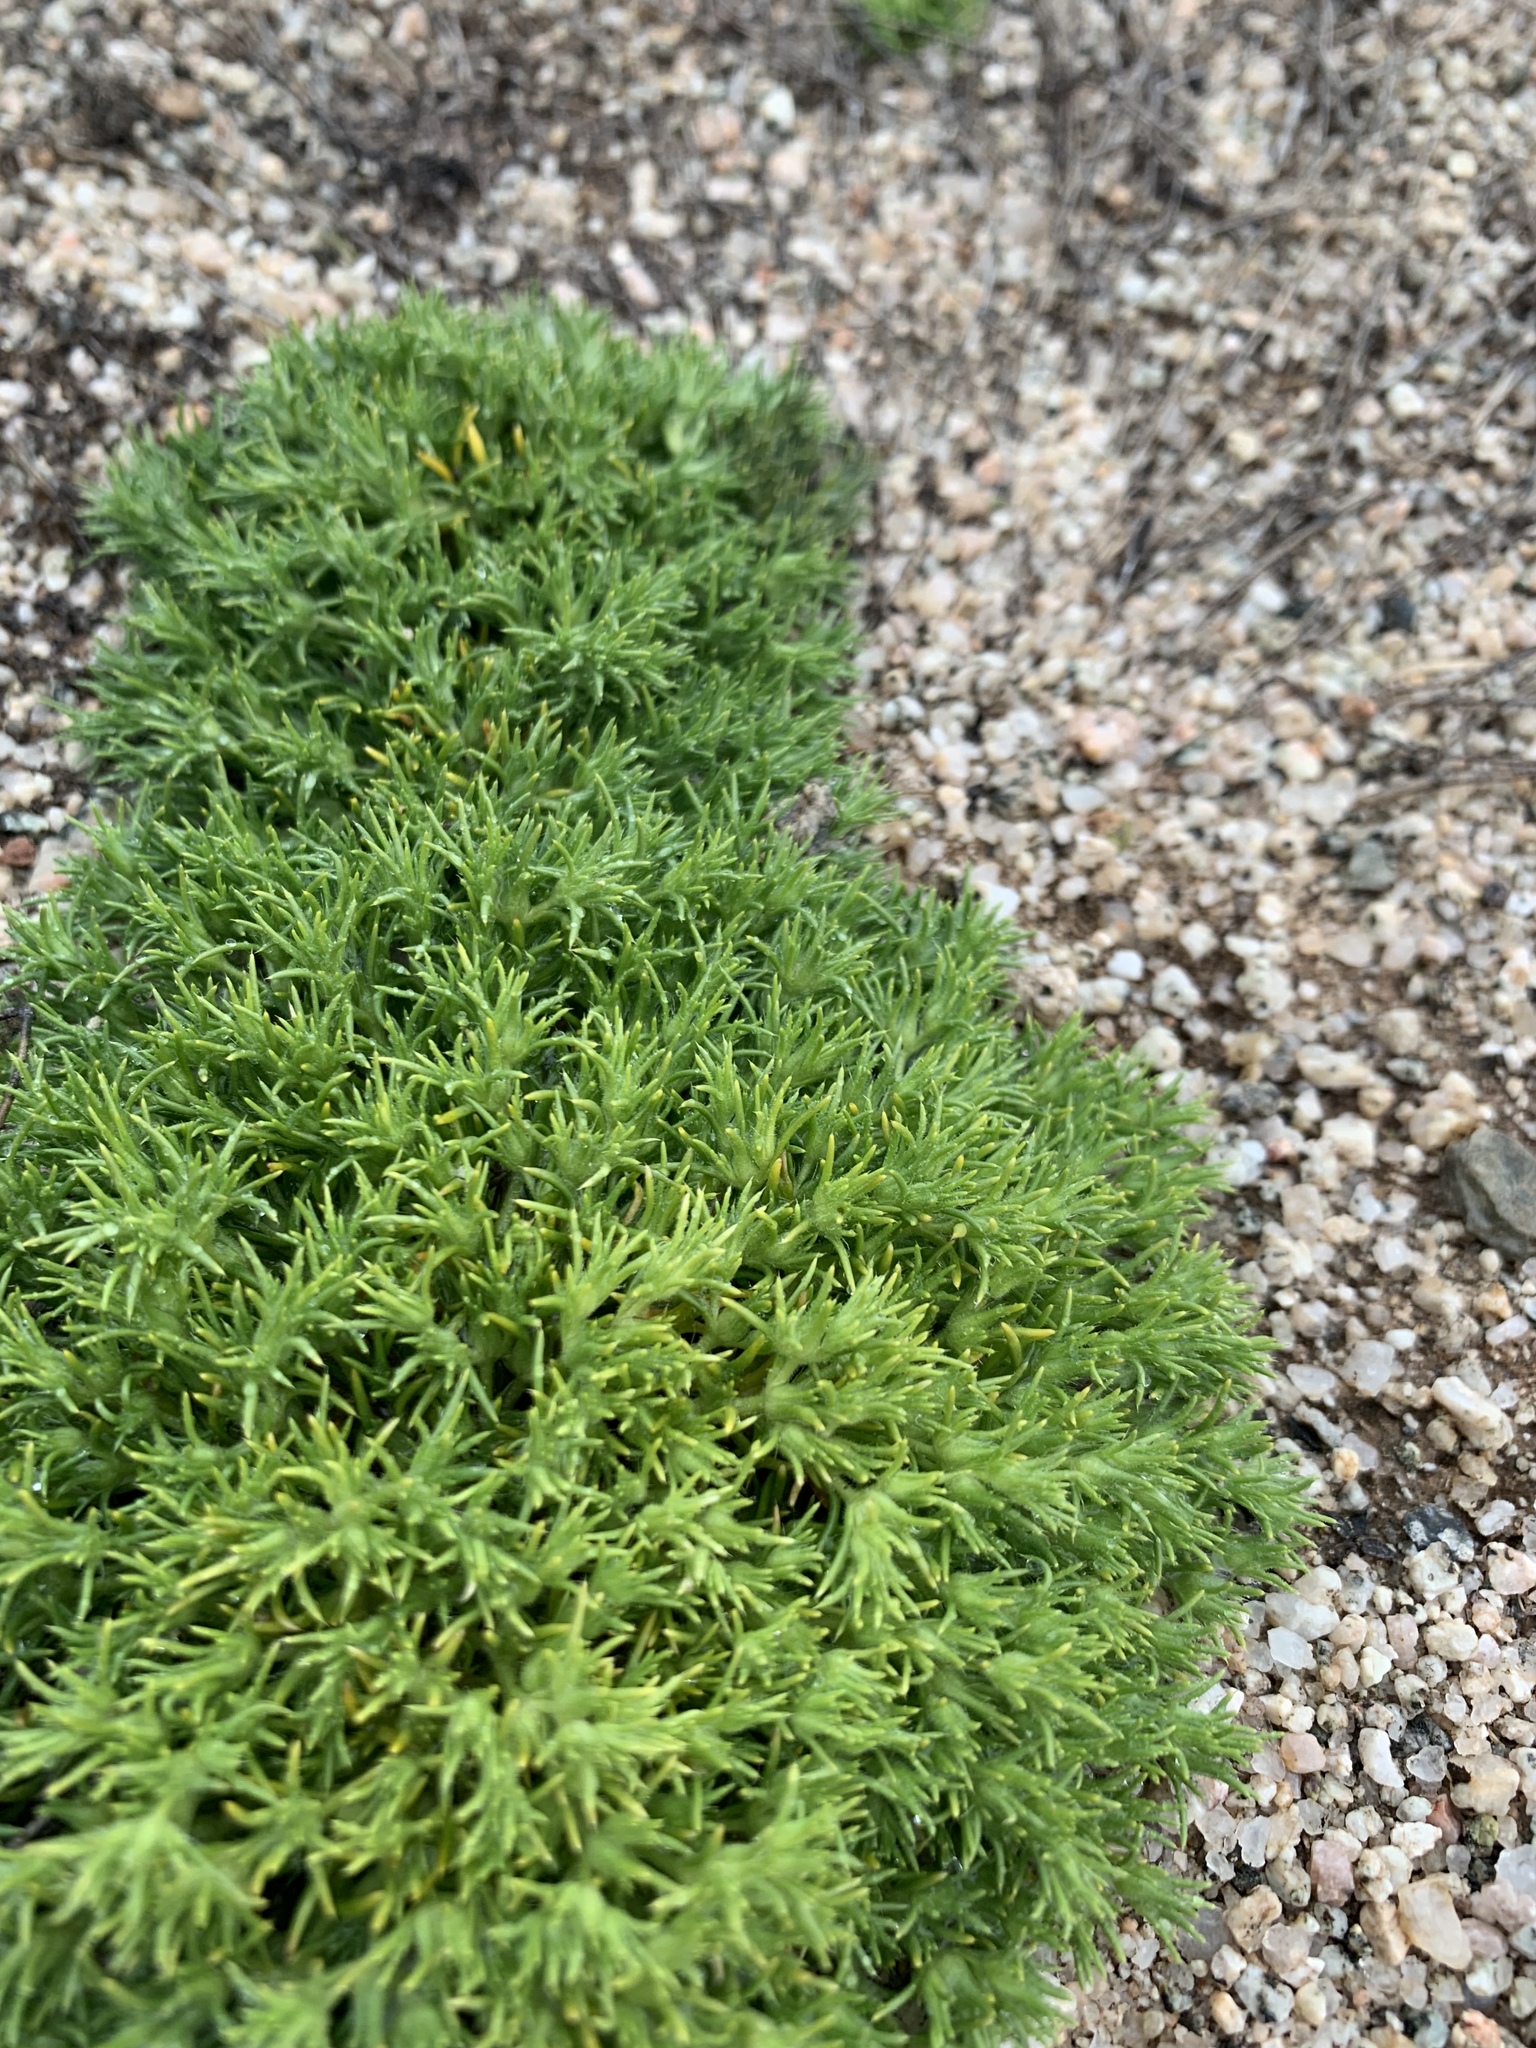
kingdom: Plantae
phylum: Tracheophyta
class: Magnoliopsida
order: Caryophyllales
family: Caryophyllaceae
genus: Loeflingia
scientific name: Loeflingia squarrosa
